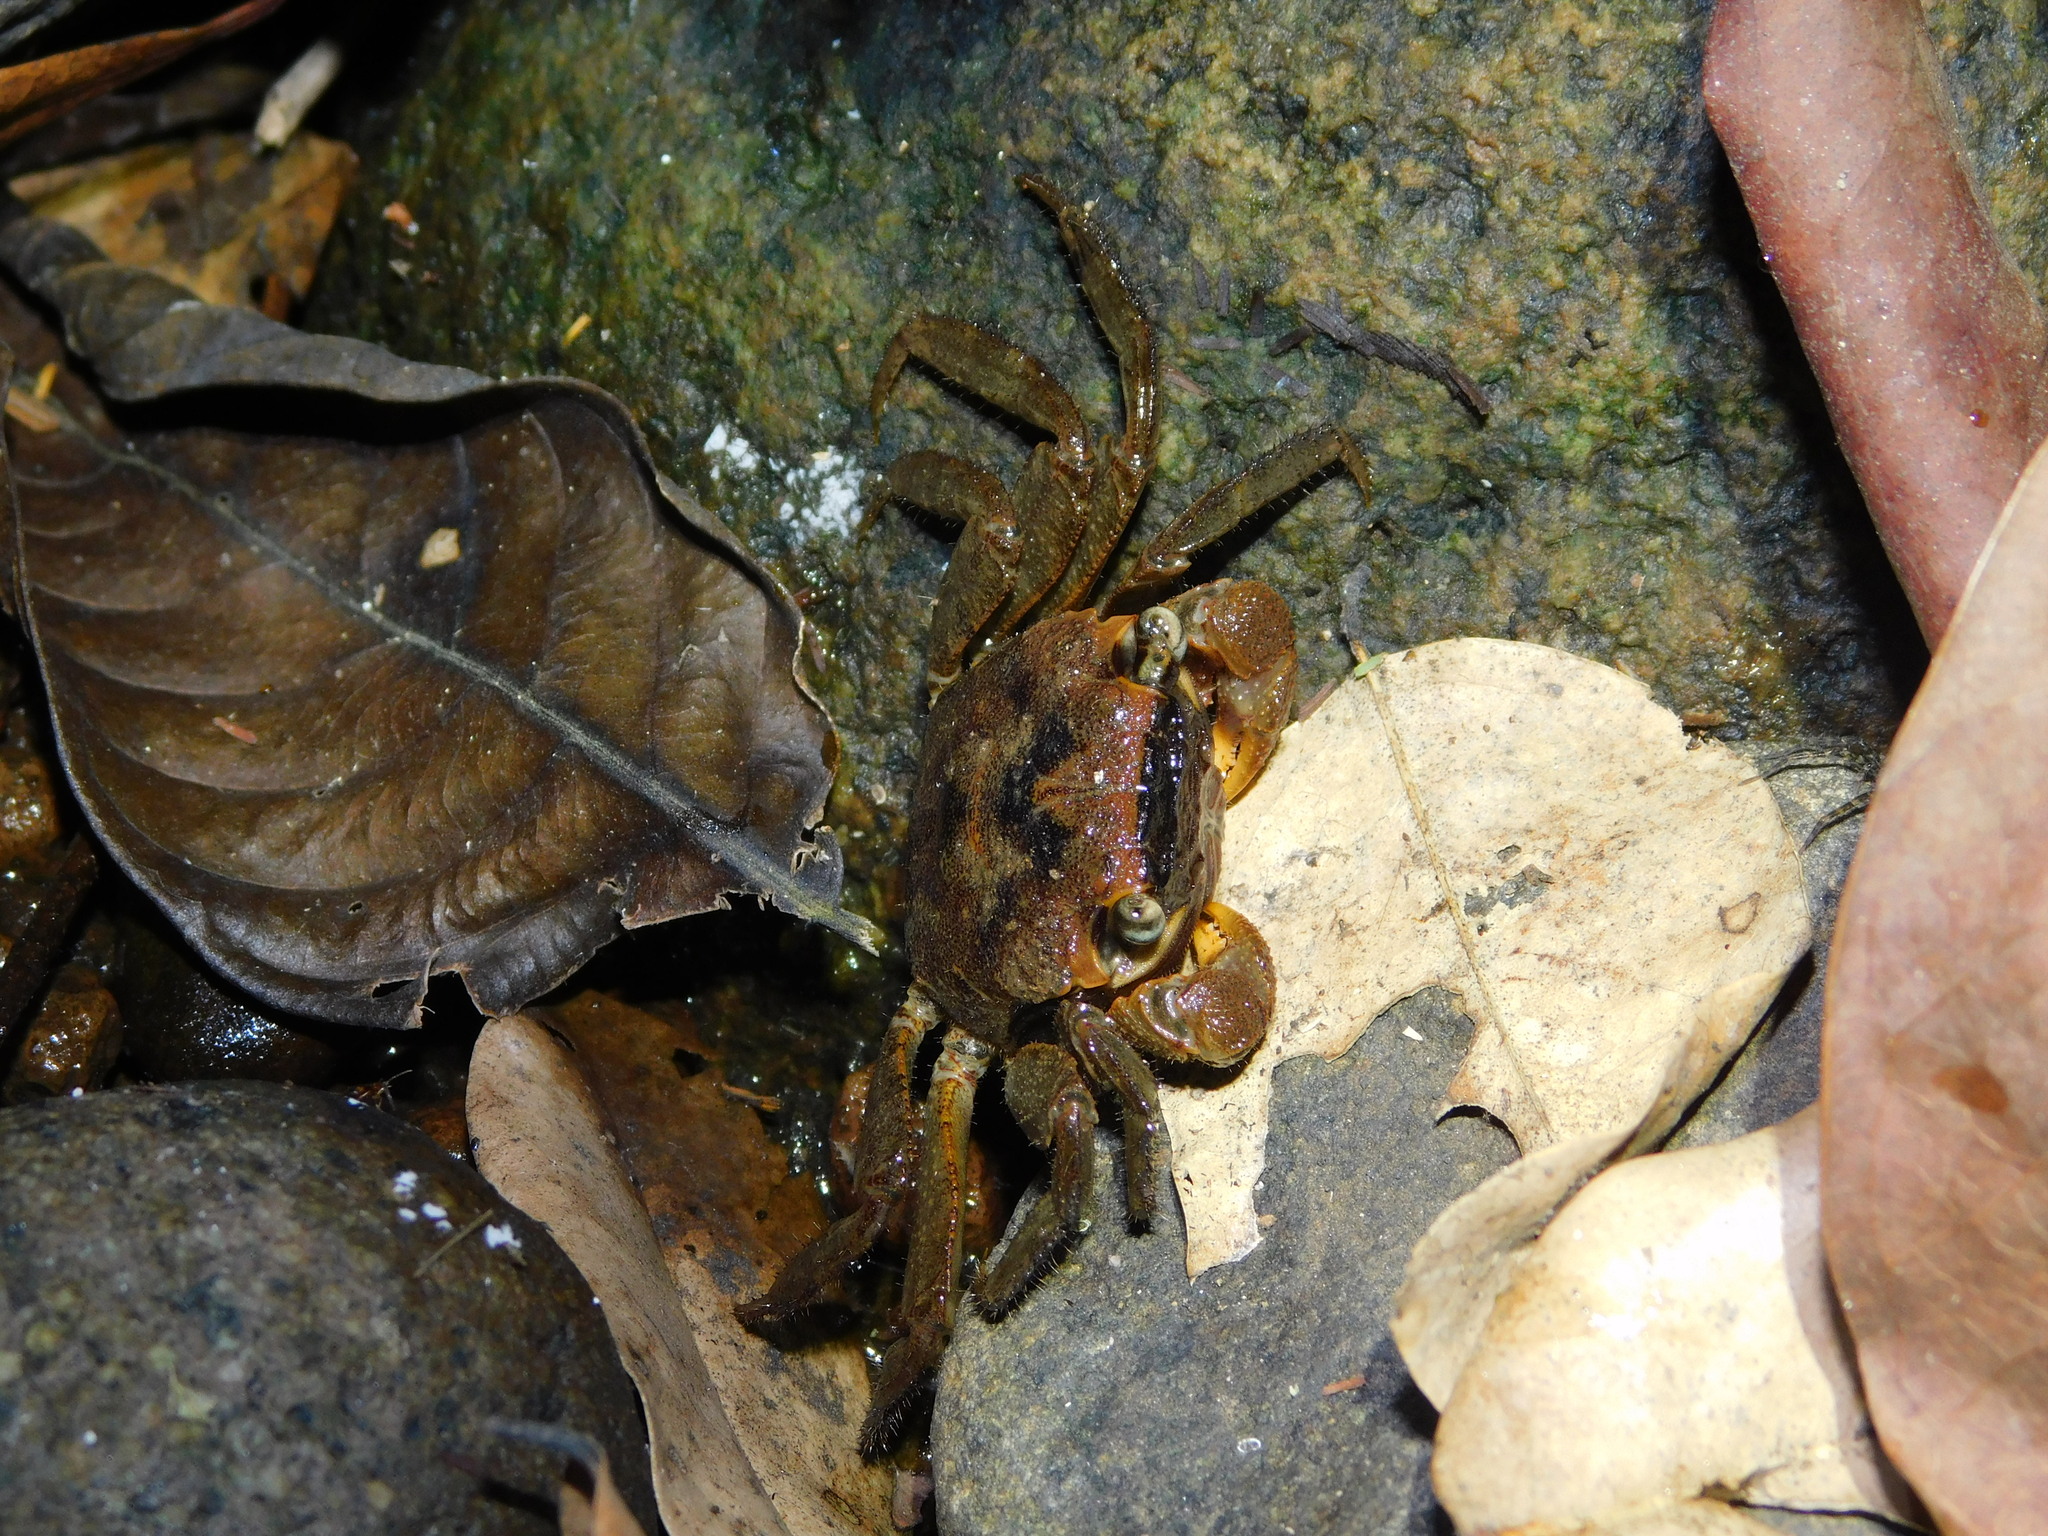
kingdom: Animalia
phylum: Arthropoda
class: Malacostraca
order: Decapoda
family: Sesarmidae
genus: Metasesarma
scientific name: Metasesarma obesum
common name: Marble crab
